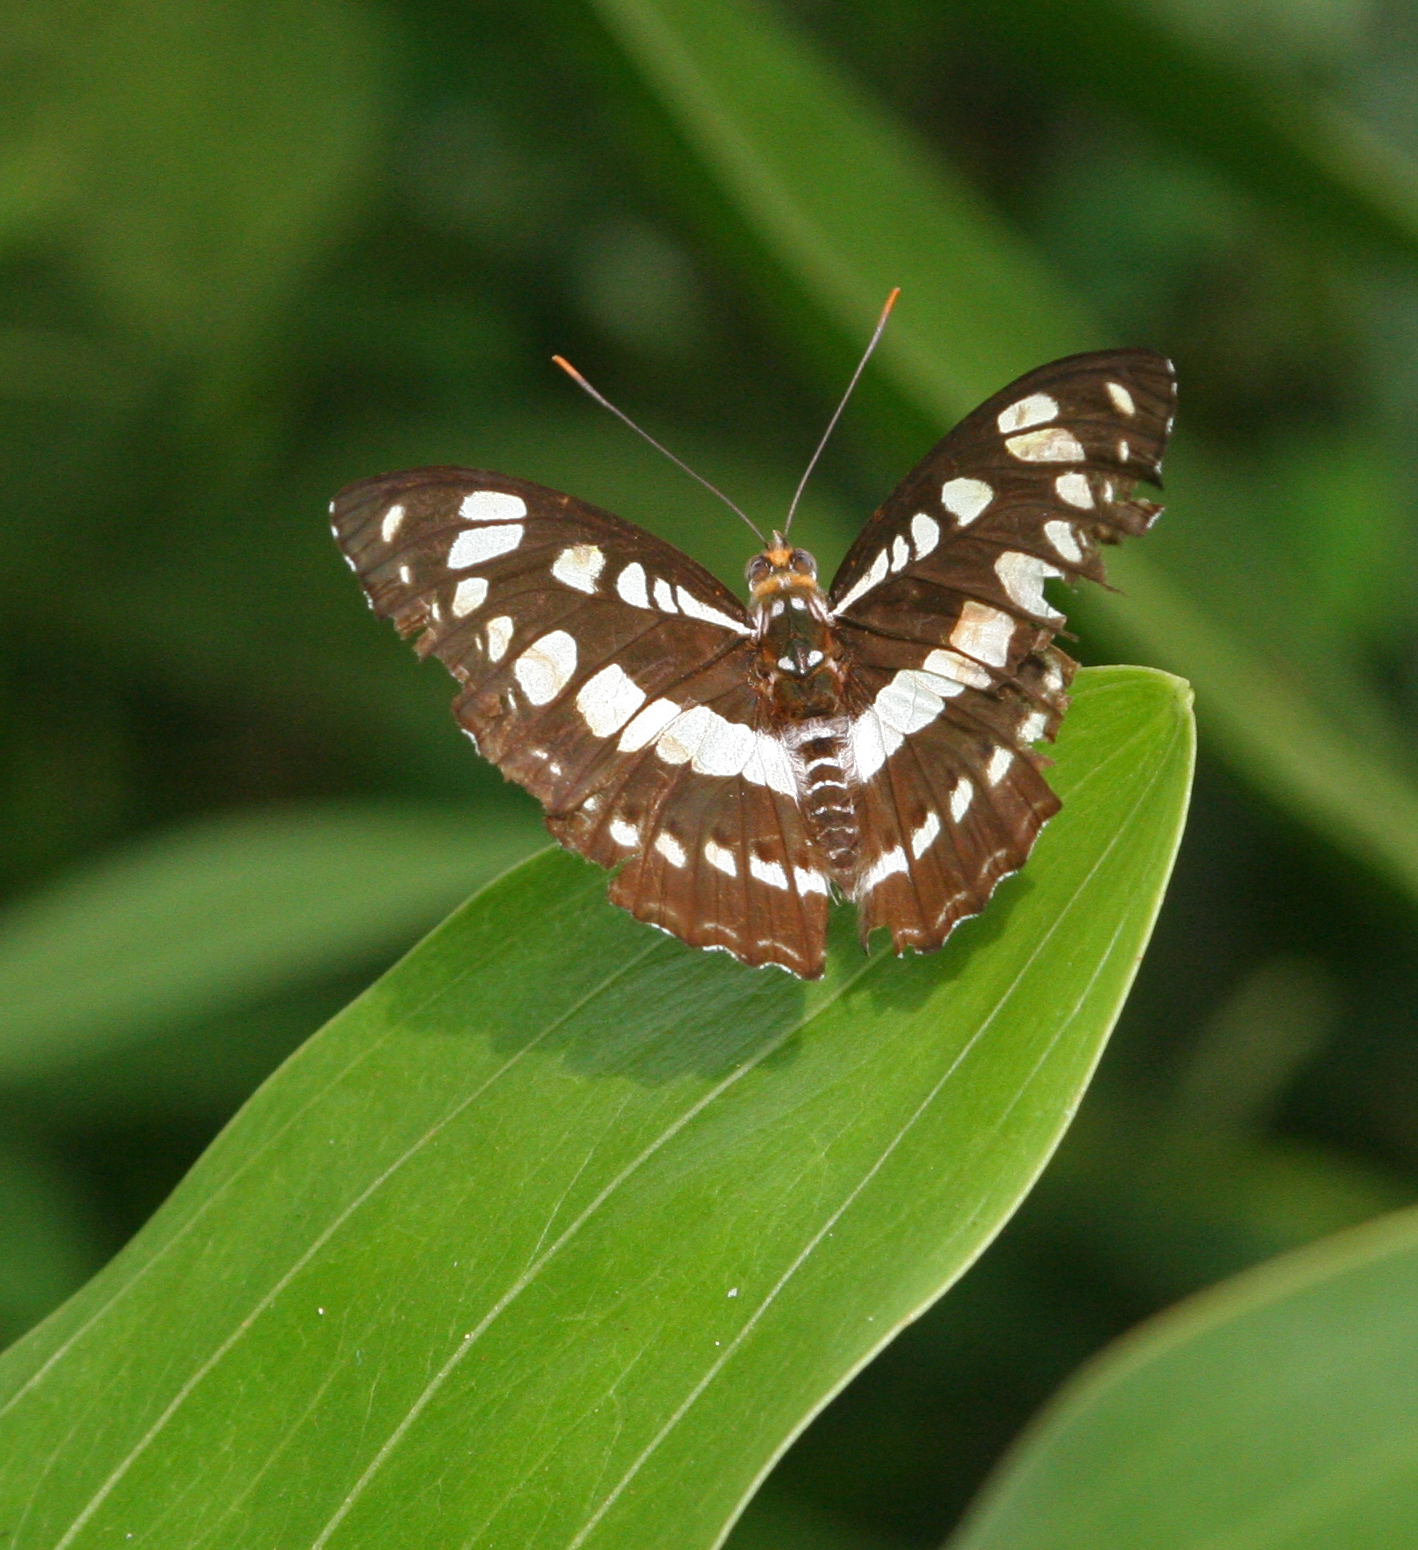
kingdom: Animalia
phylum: Arthropoda
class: Insecta
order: Lepidoptera
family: Nymphalidae
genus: Parathyma
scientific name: Parathyma perius
